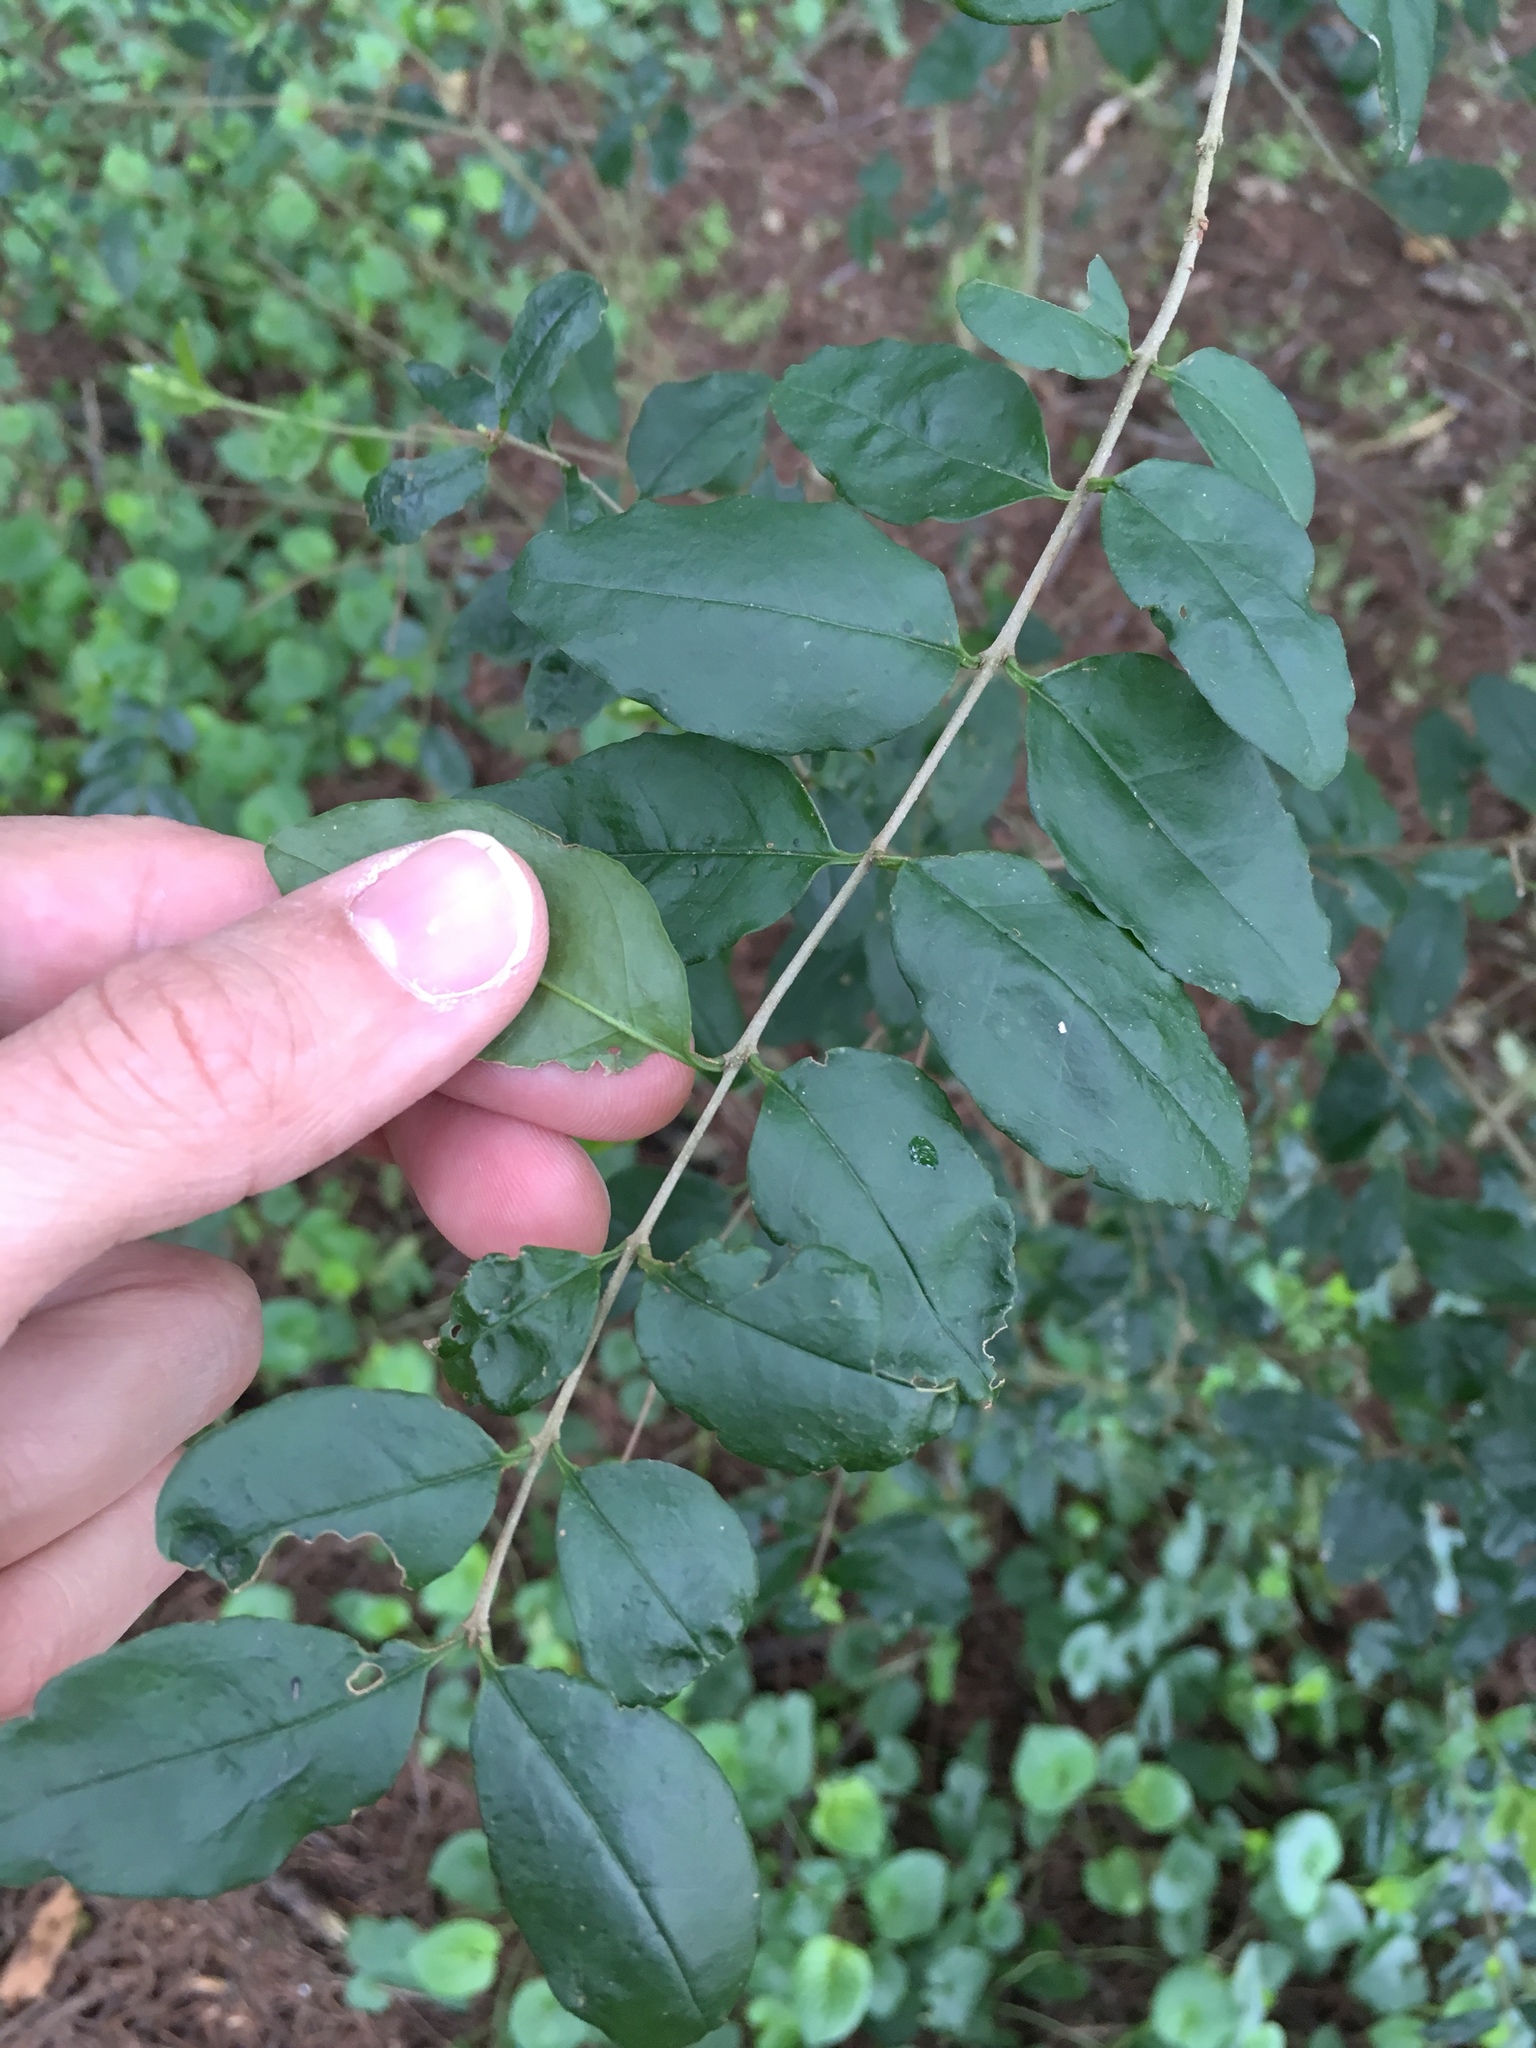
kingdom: Plantae
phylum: Tracheophyta
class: Magnoliopsida
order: Lamiales
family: Oleaceae
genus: Ligustrum
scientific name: Ligustrum sinense
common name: Chinese privet
